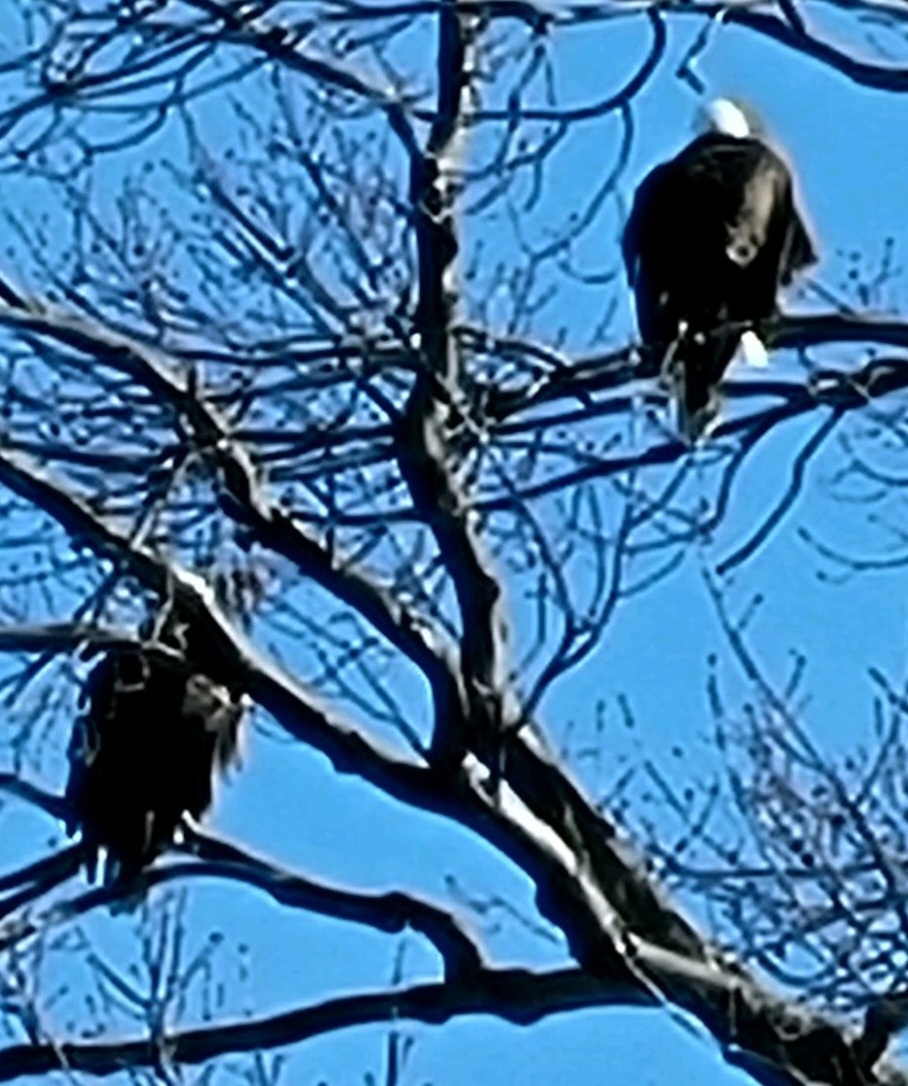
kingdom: Animalia
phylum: Chordata
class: Aves
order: Accipitriformes
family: Accipitridae
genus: Haliaeetus
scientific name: Haliaeetus leucocephalus
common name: Bald eagle
